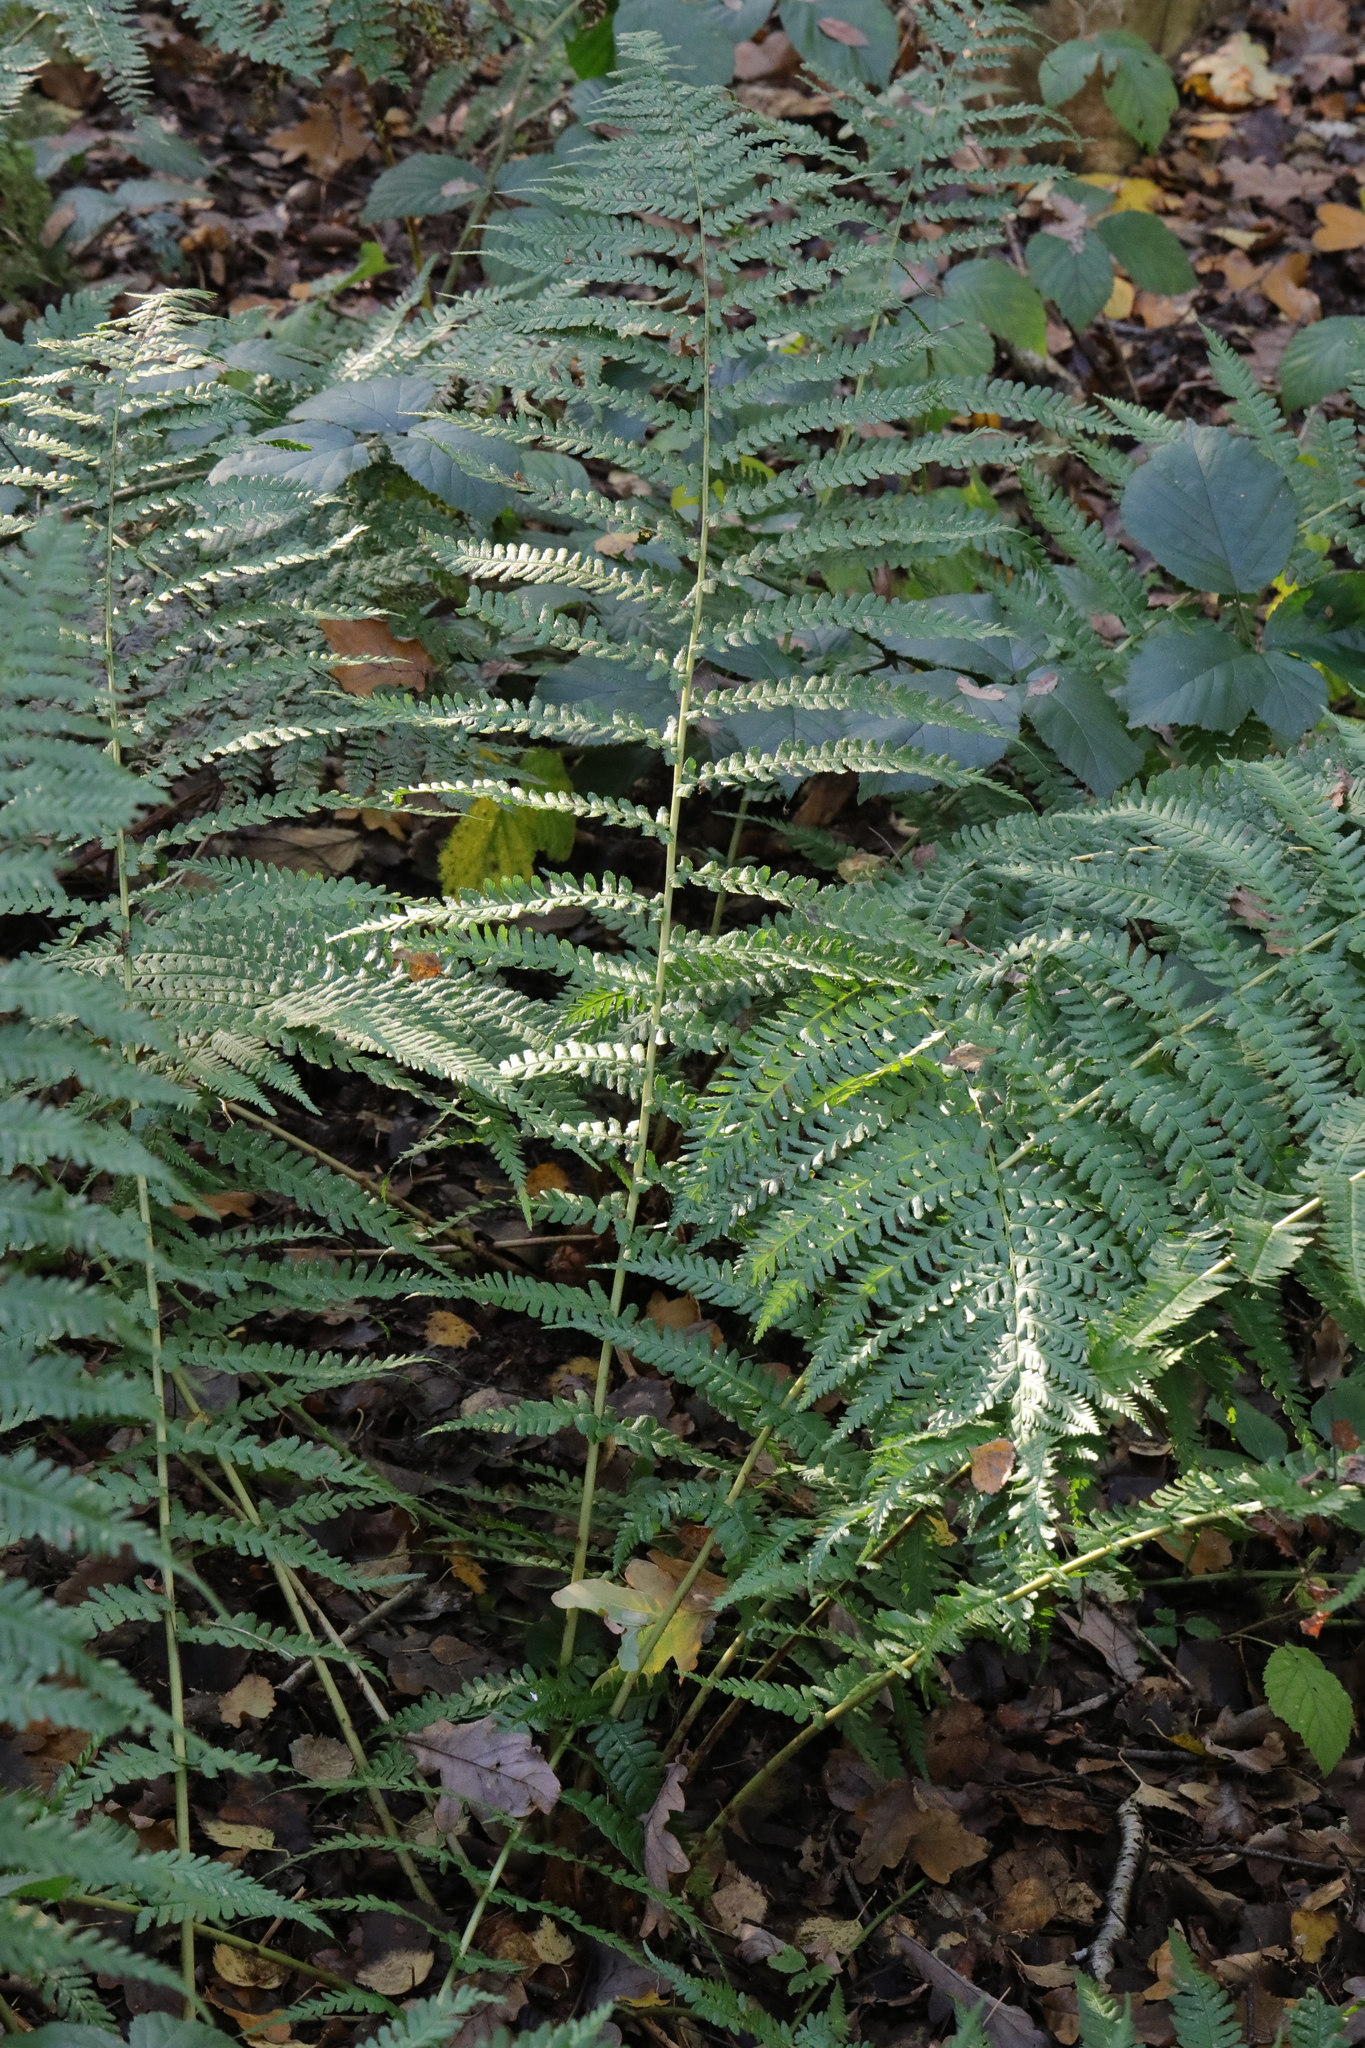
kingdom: Plantae
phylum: Tracheophyta
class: Polypodiopsida
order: Polypodiales
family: Dryopteridaceae
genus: Dryopteris
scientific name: Dryopteris filix-mas
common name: Male fern
